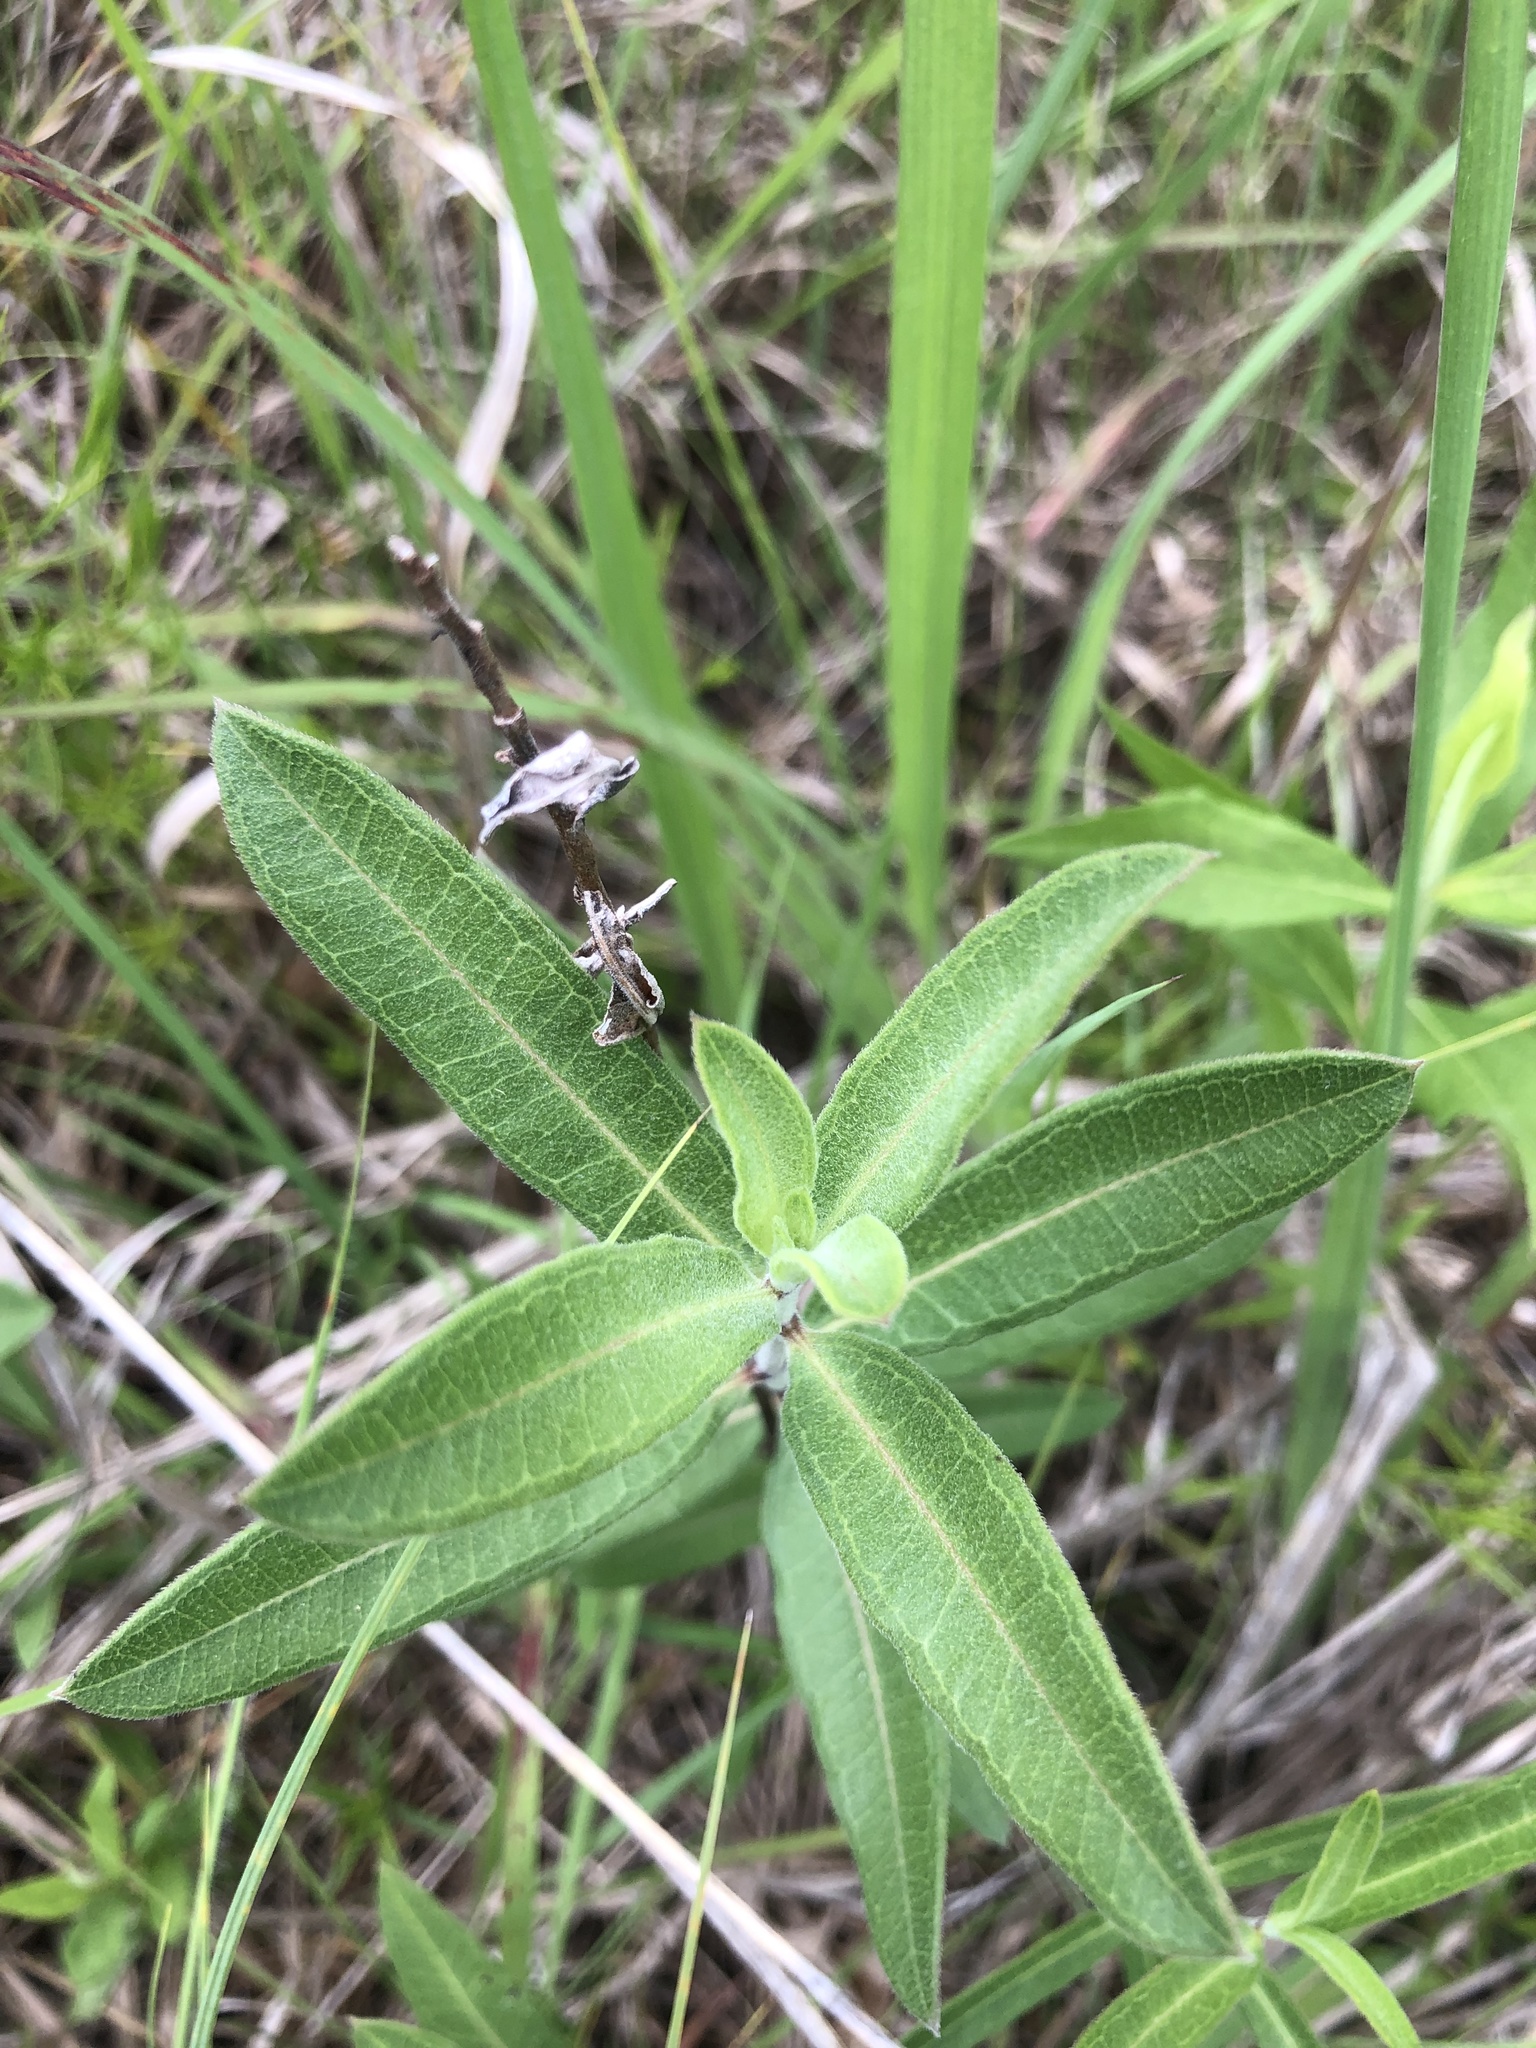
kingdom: Plantae
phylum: Tracheophyta
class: Magnoliopsida
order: Gentianales
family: Apocynaceae
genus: Asclepias
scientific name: Asclepias viridiflora
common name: Green comet milkweed
